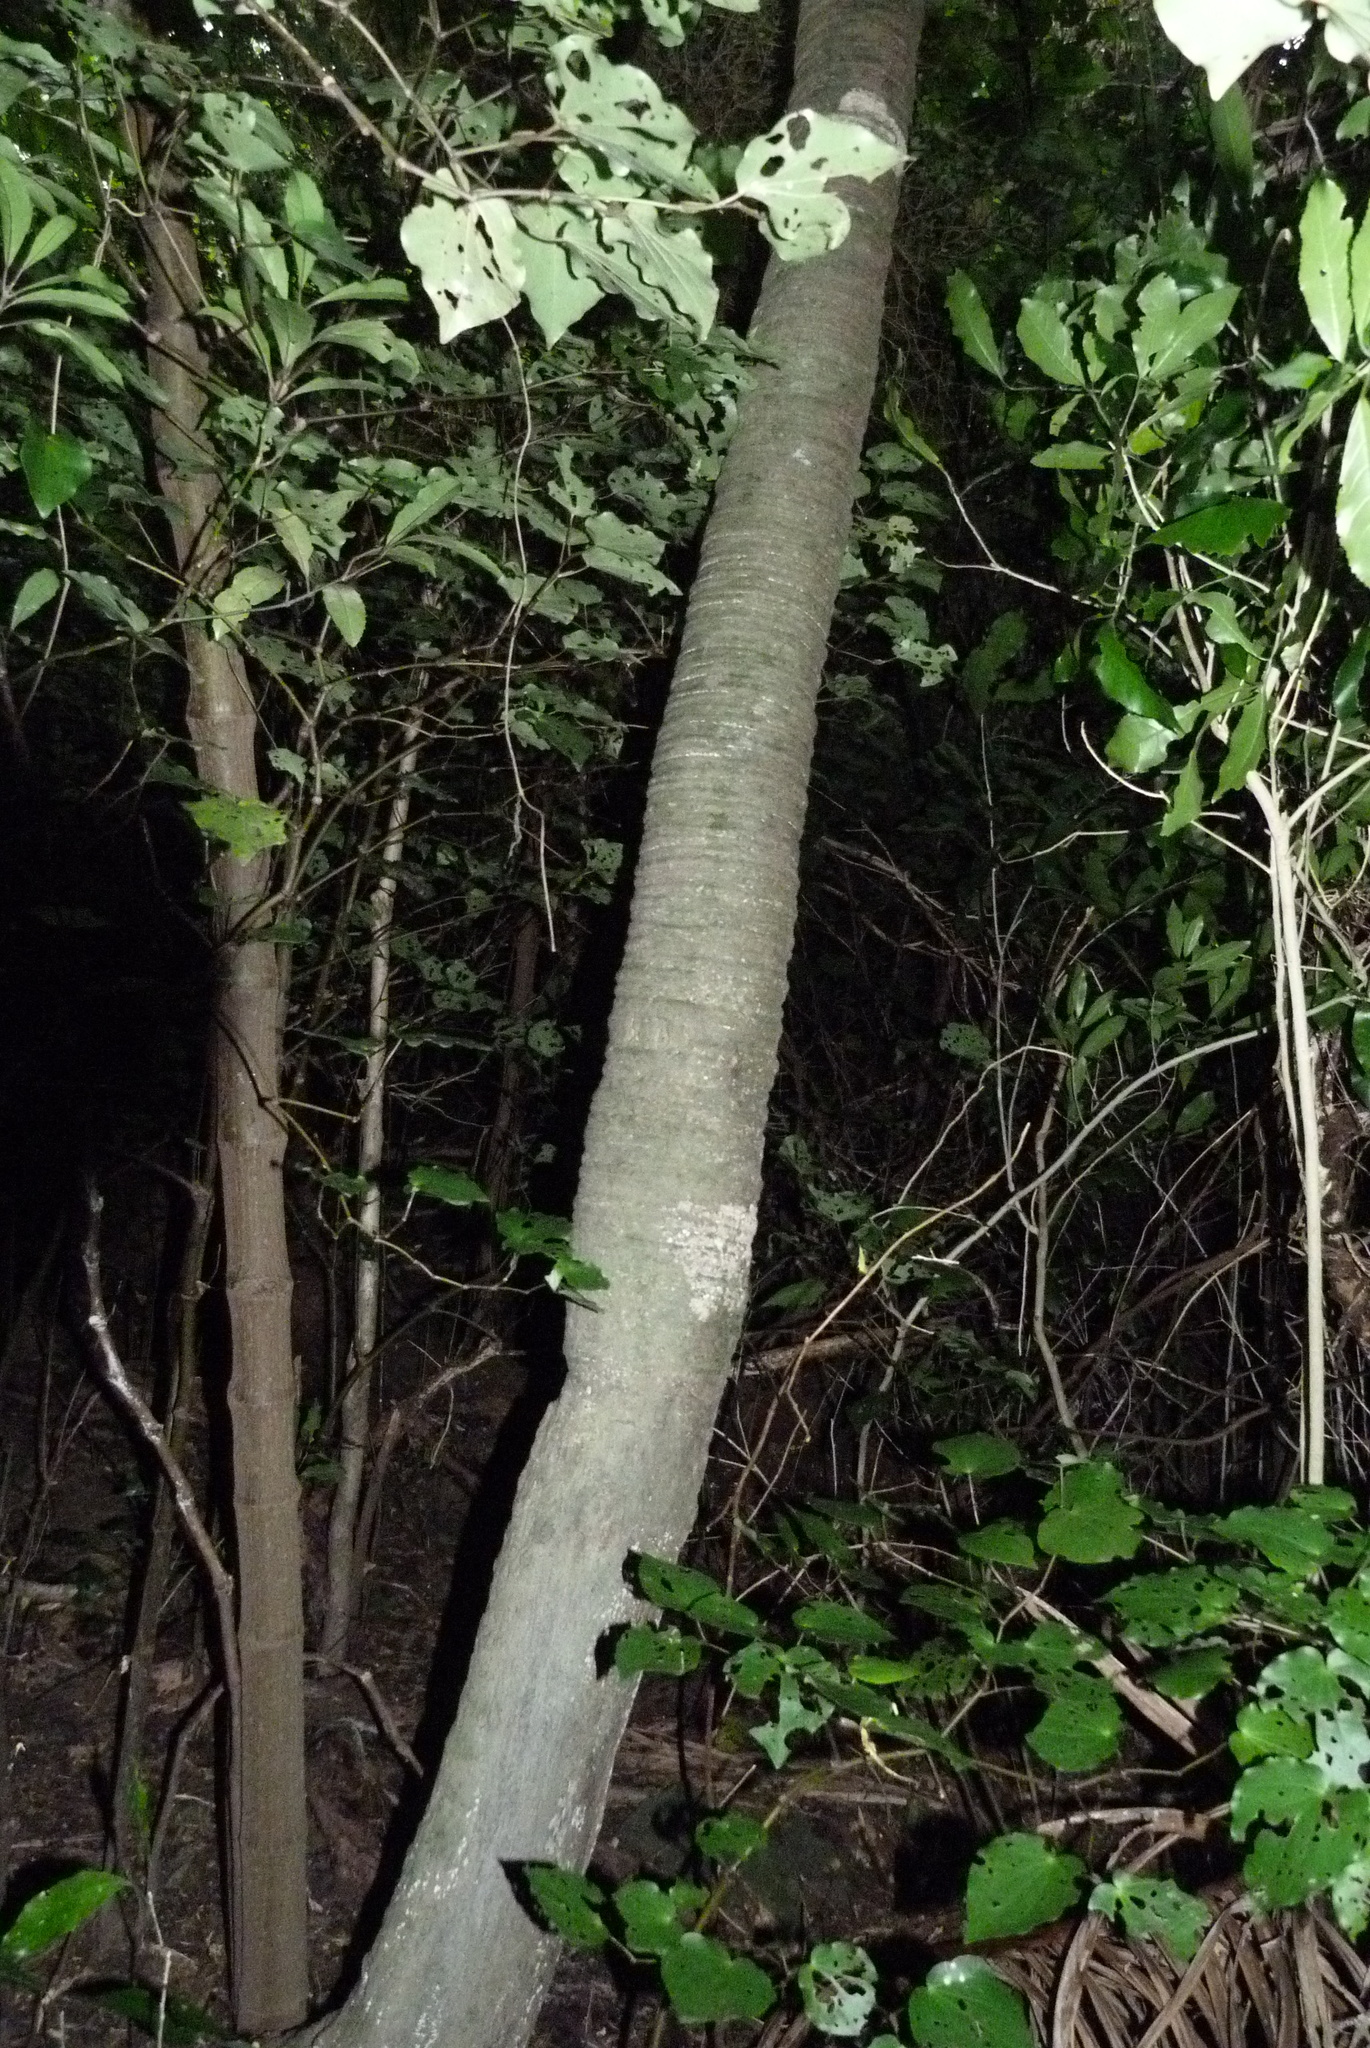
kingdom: Plantae
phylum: Tracheophyta
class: Liliopsida
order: Arecales
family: Arecaceae
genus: Rhopalostylis
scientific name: Rhopalostylis sapida
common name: Feather-duster palm
